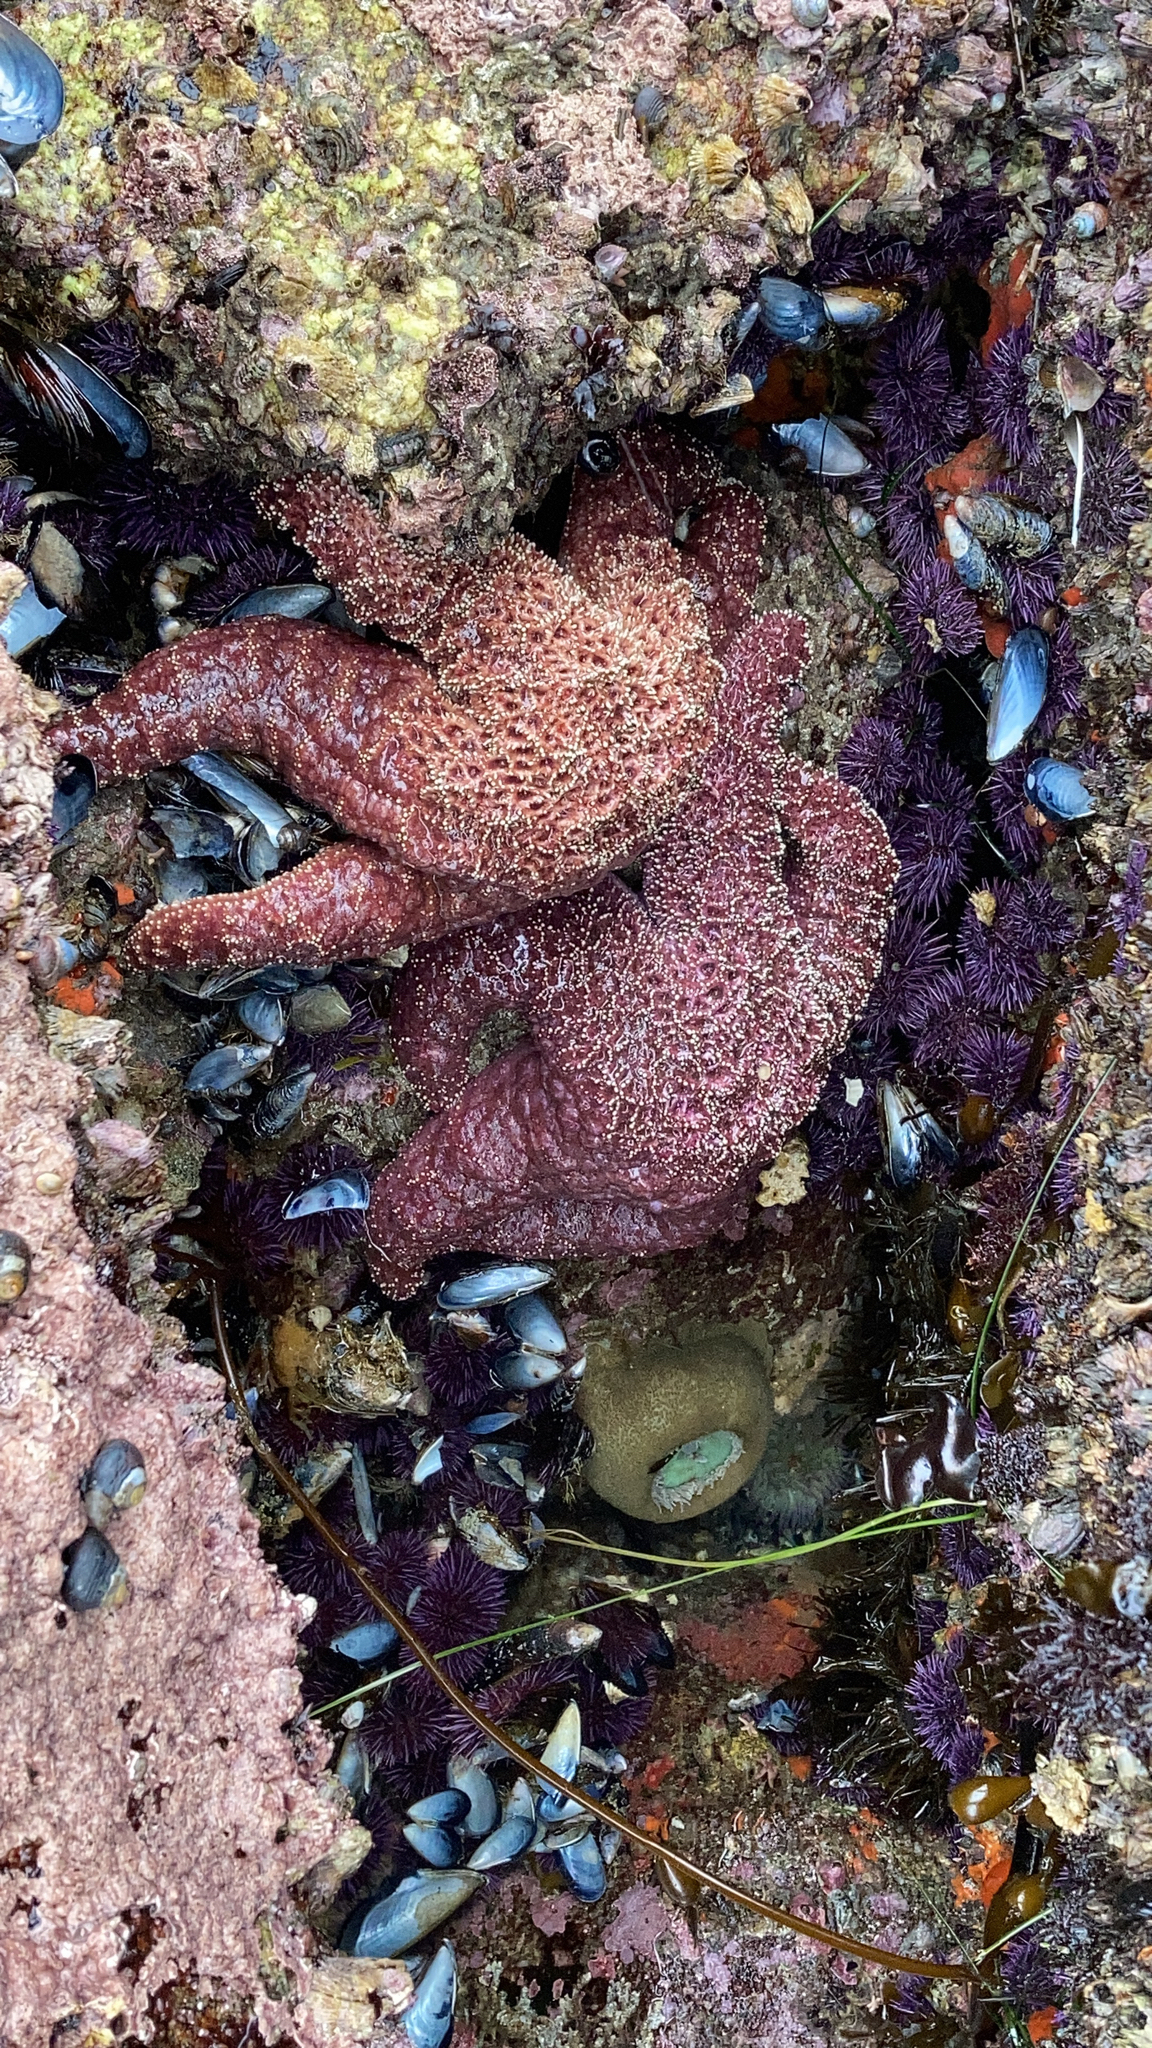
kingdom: Animalia
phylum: Echinodermata
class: Asteroidea
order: Forcipulatida
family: Asteriidae
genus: Pisaster
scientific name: Pisaster ochraceus
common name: Ochre stars
